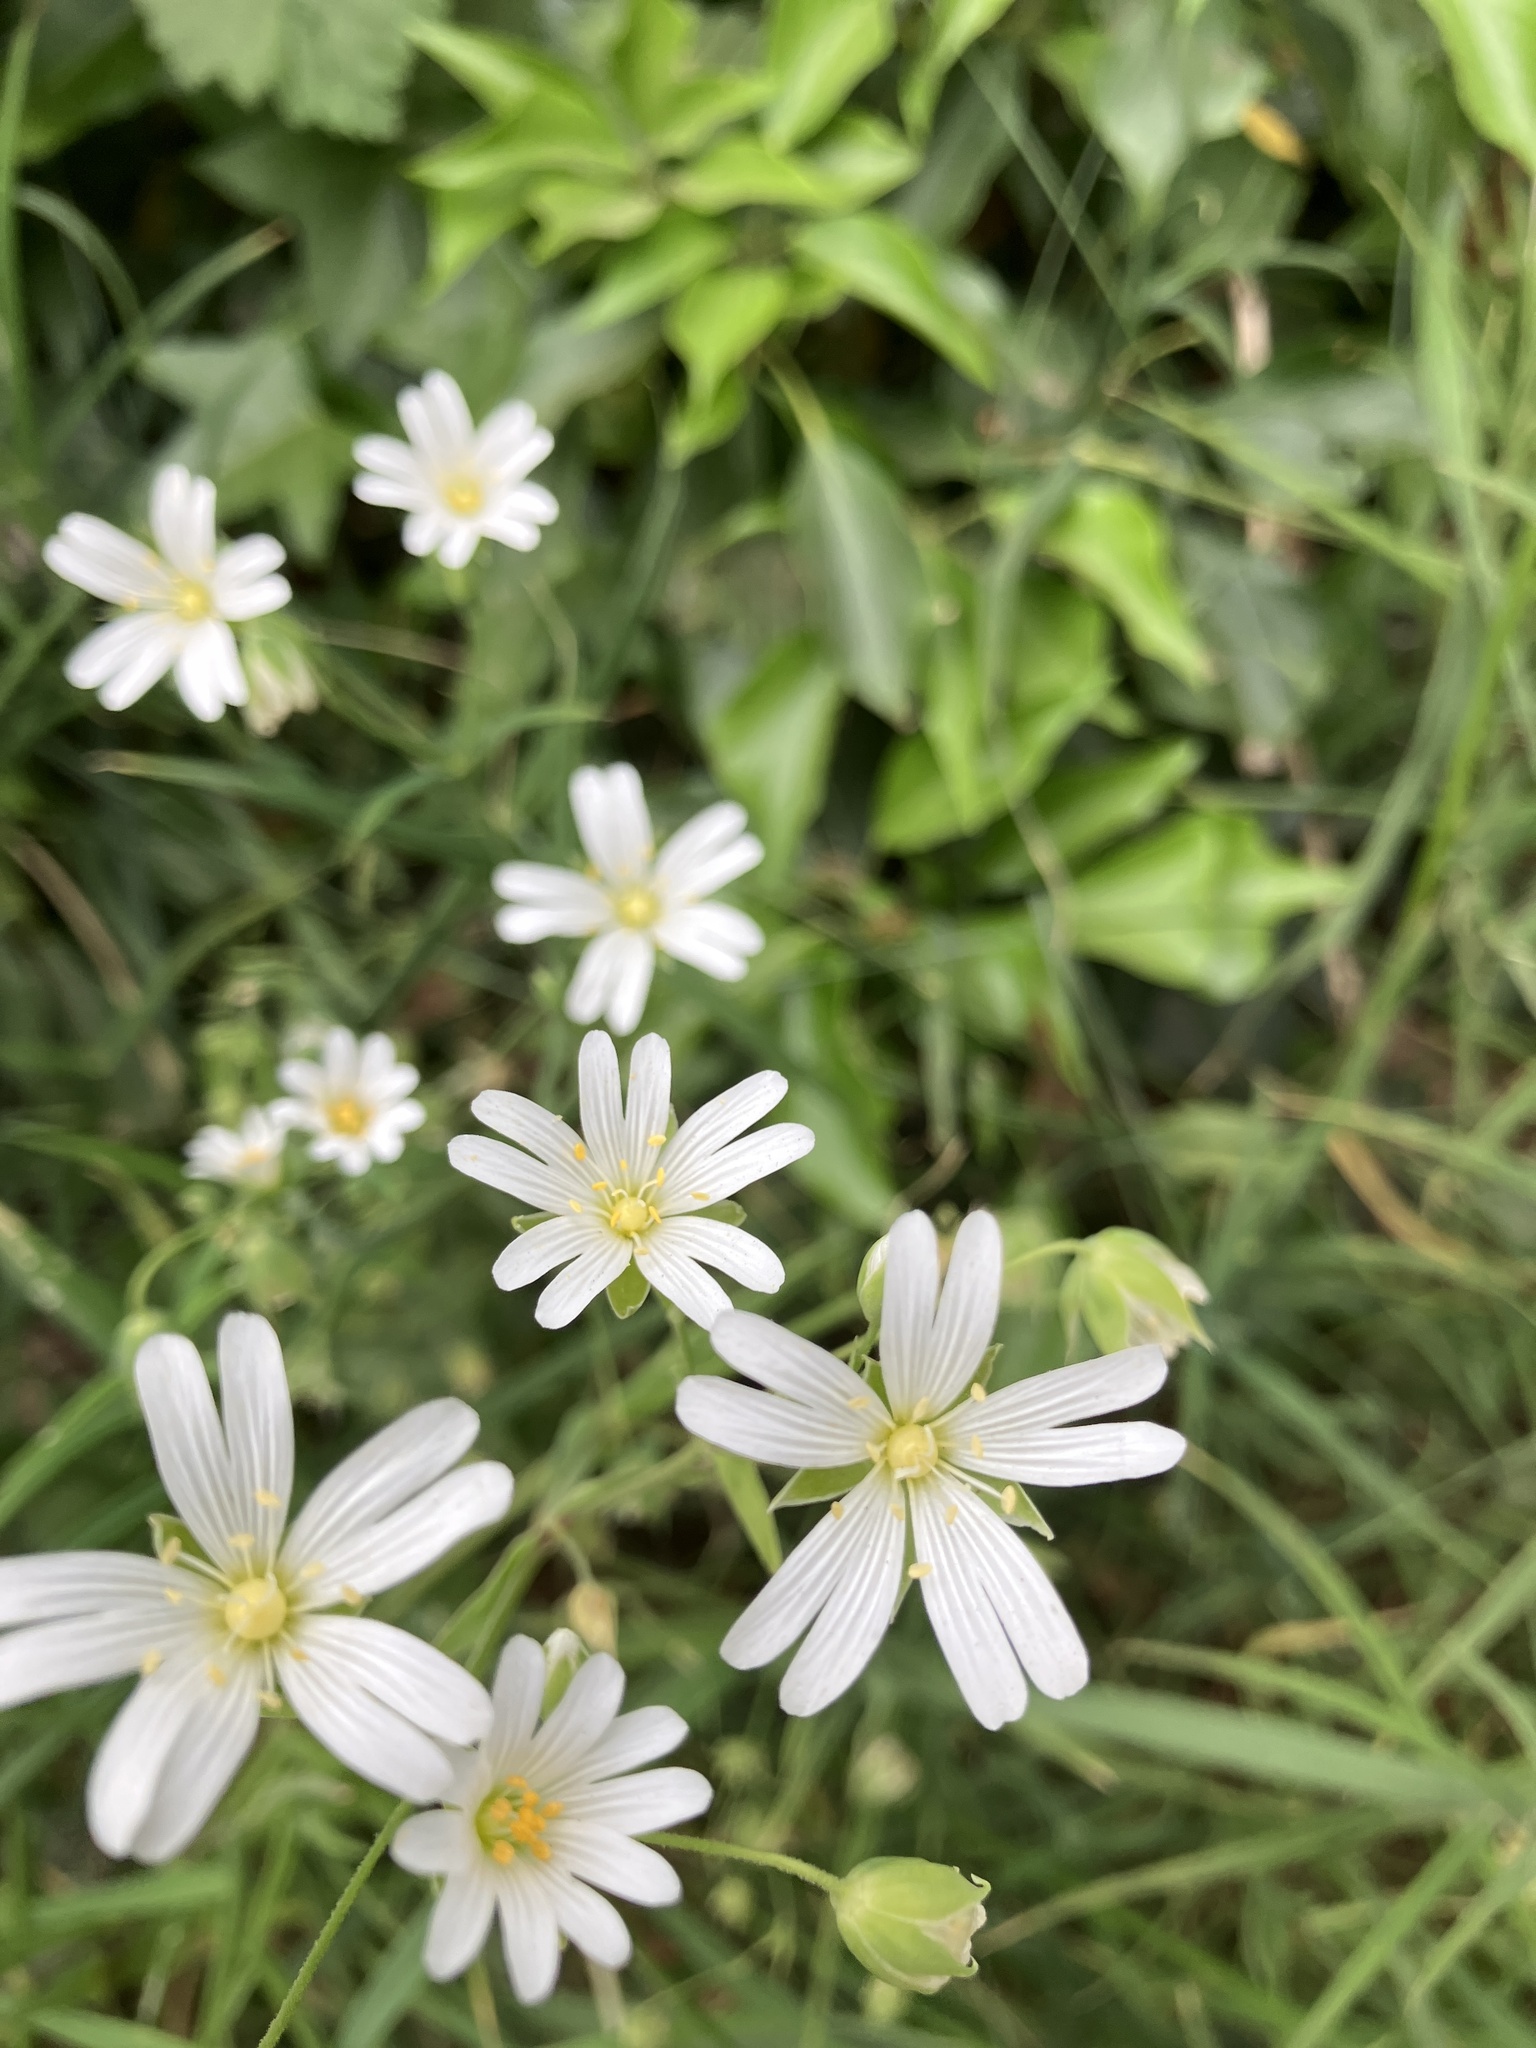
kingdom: Plantae
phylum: Tracheophyta
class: Magnoliopsida
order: Caryophyllales
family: Caryophyllaceae
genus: Rabelera
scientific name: Rabelera holostea
